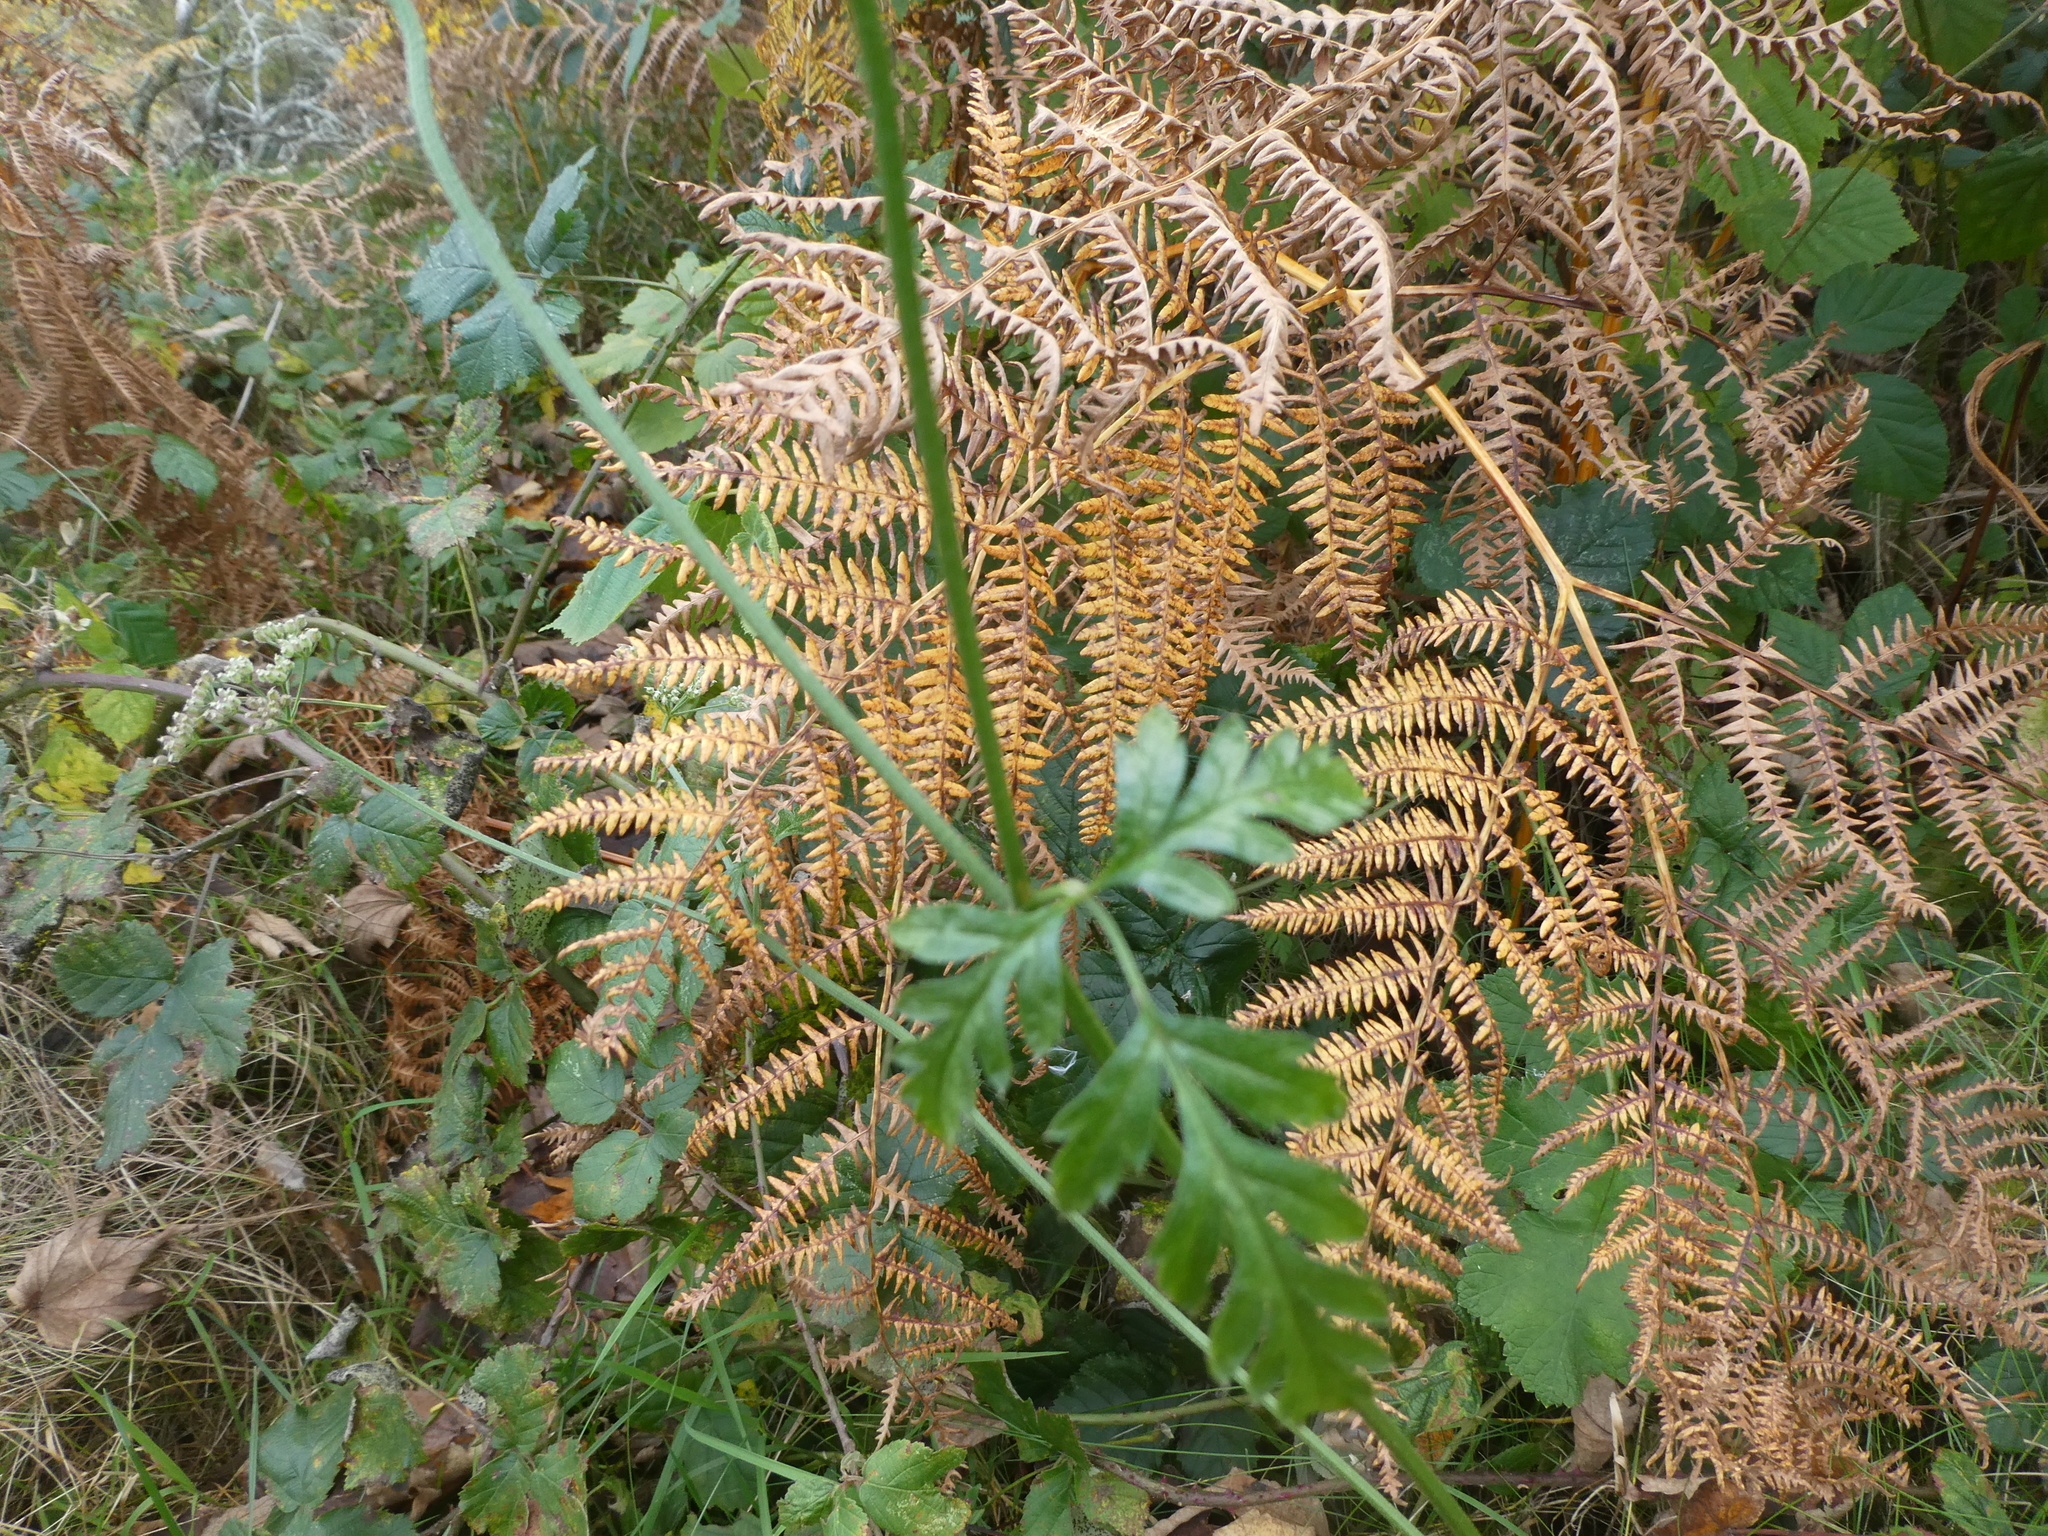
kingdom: Plantae
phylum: Tracheophyta
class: Magnoliopsida
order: Apiales
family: Apiaceae
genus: Torilis
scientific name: Torilis japonica
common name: Upright hedge-parsley
